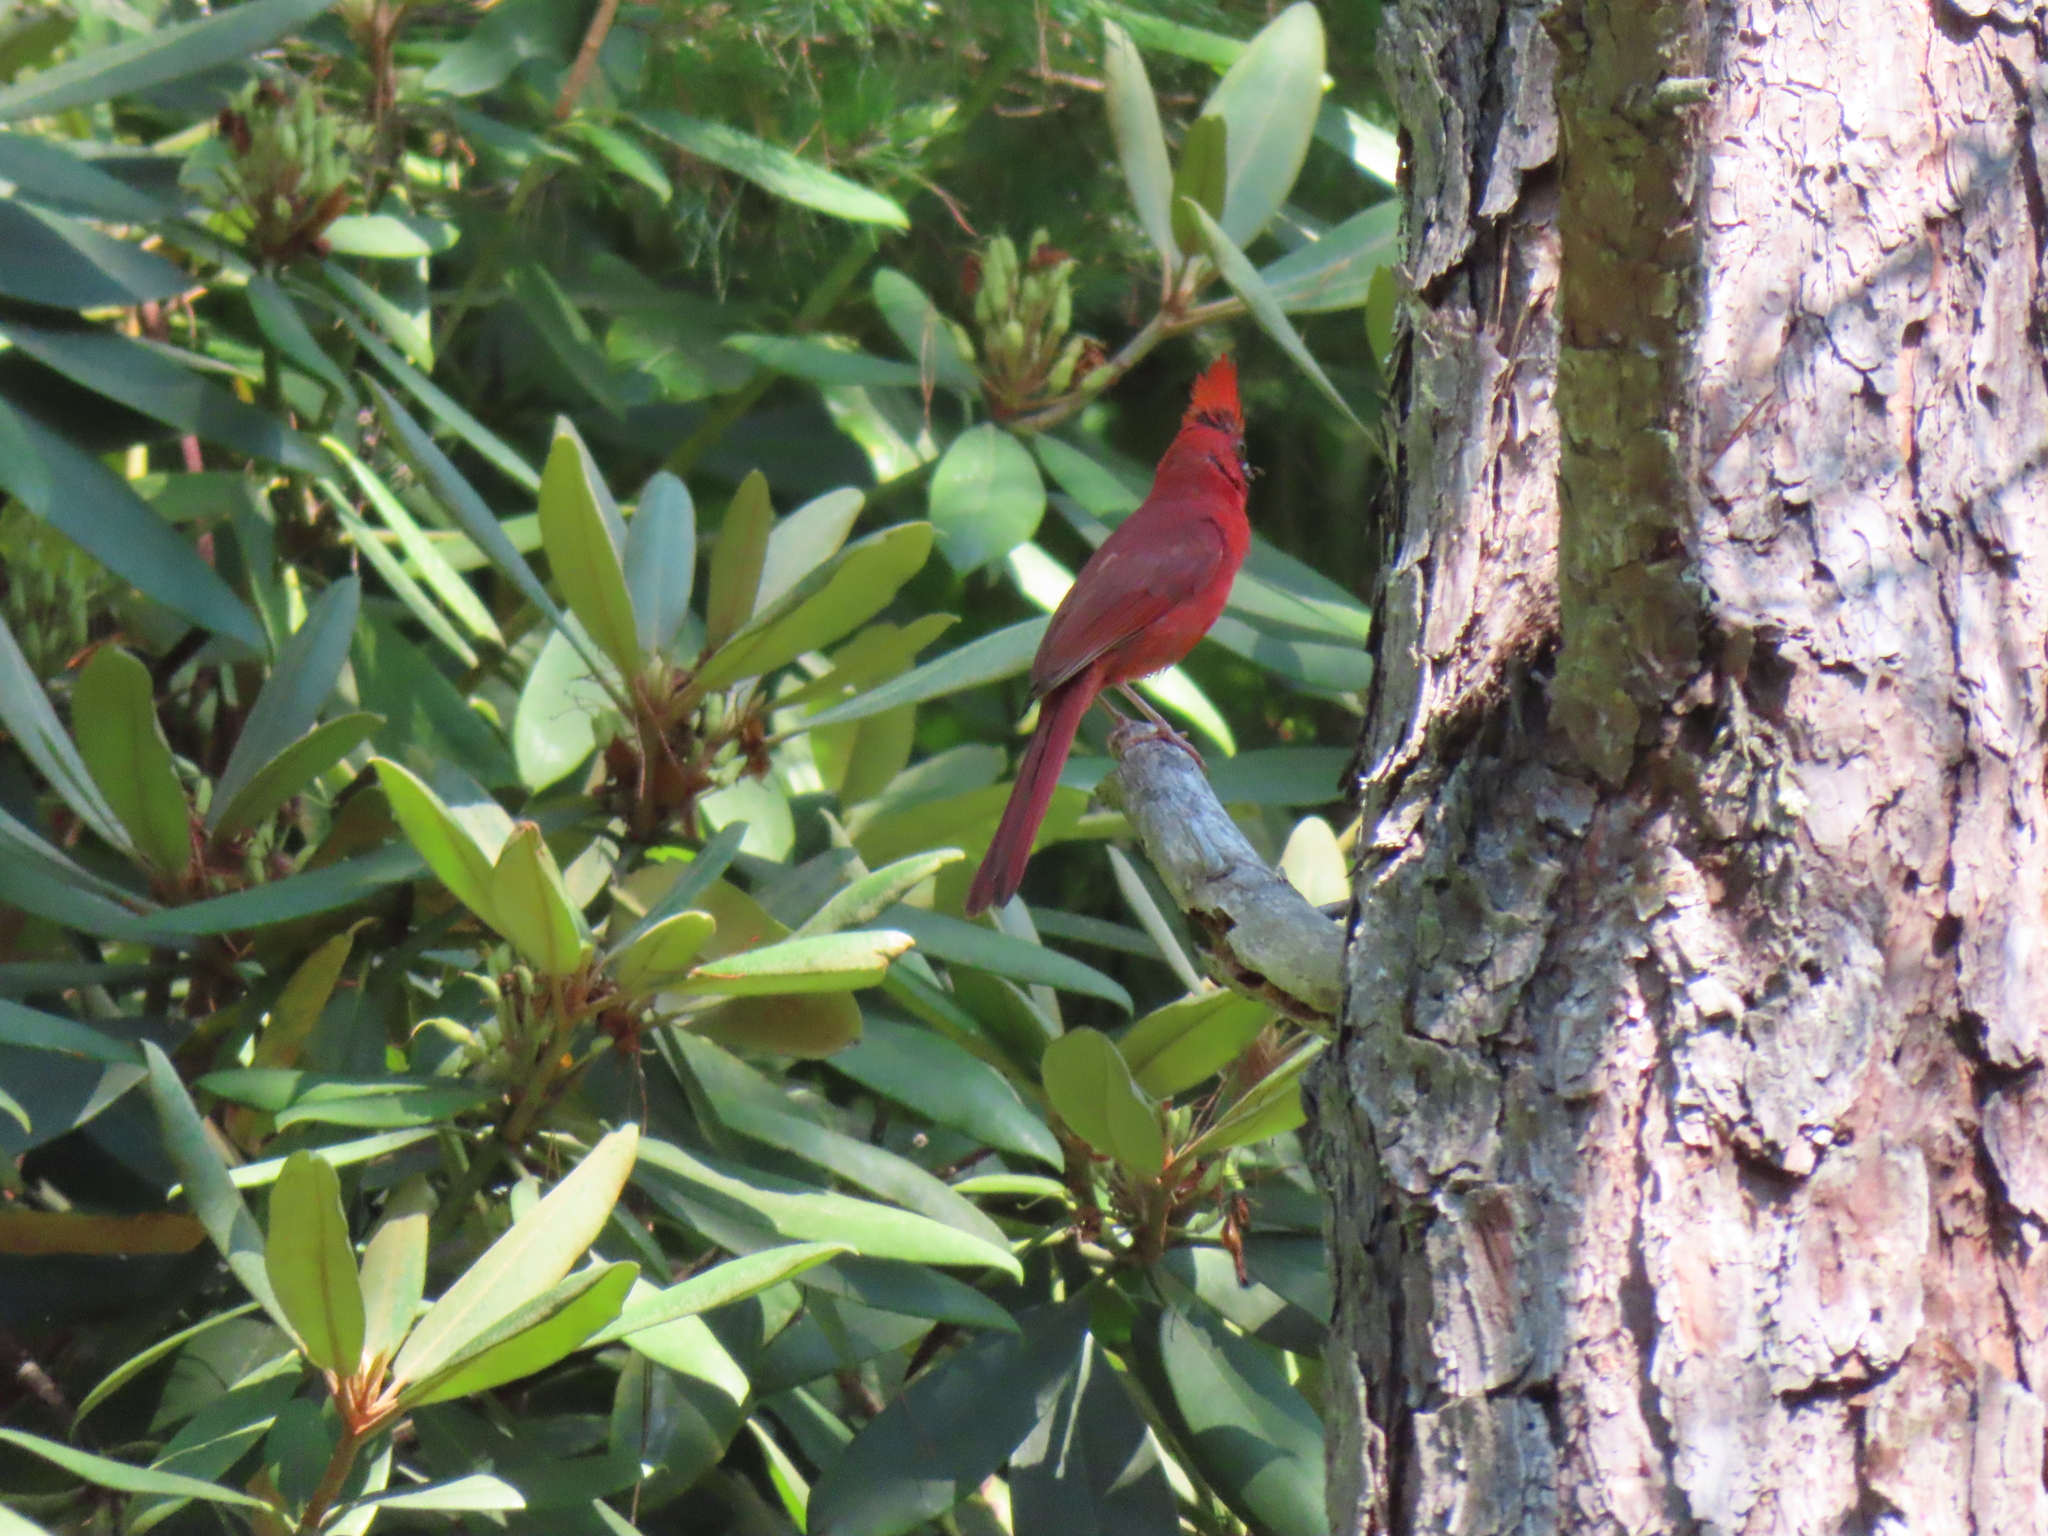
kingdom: Animalia
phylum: Chordata
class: Aves
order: Passeriformes
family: Cardinalidae
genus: Cardinalis
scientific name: Cardinalis cardinalis
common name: Northern cardinal
